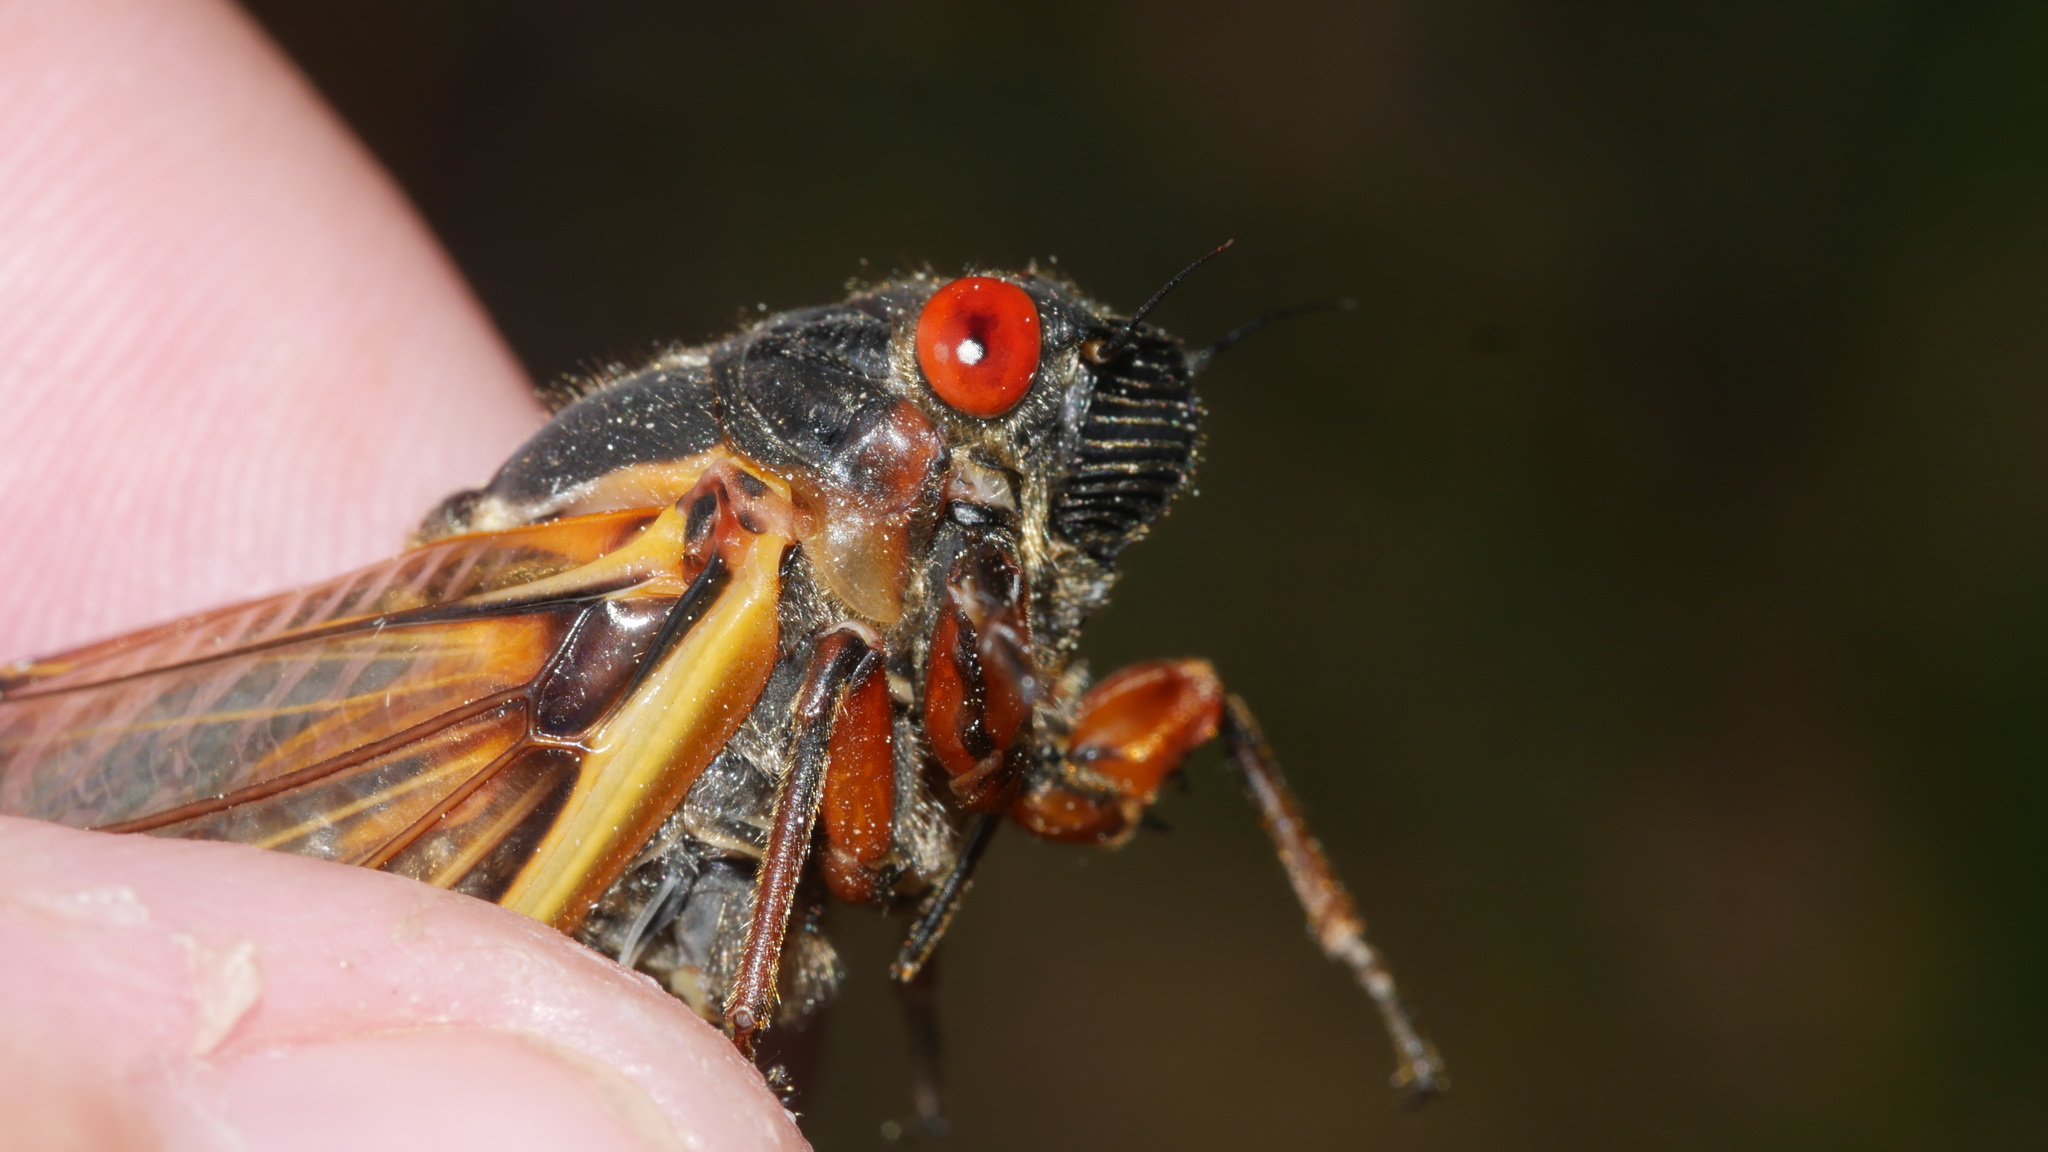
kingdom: Animalia
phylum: Arthropoda
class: Insecta
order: Hemiptera
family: Cicadidae
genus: Magicicada
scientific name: Magicicada septendecim
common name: Periodical cicada
